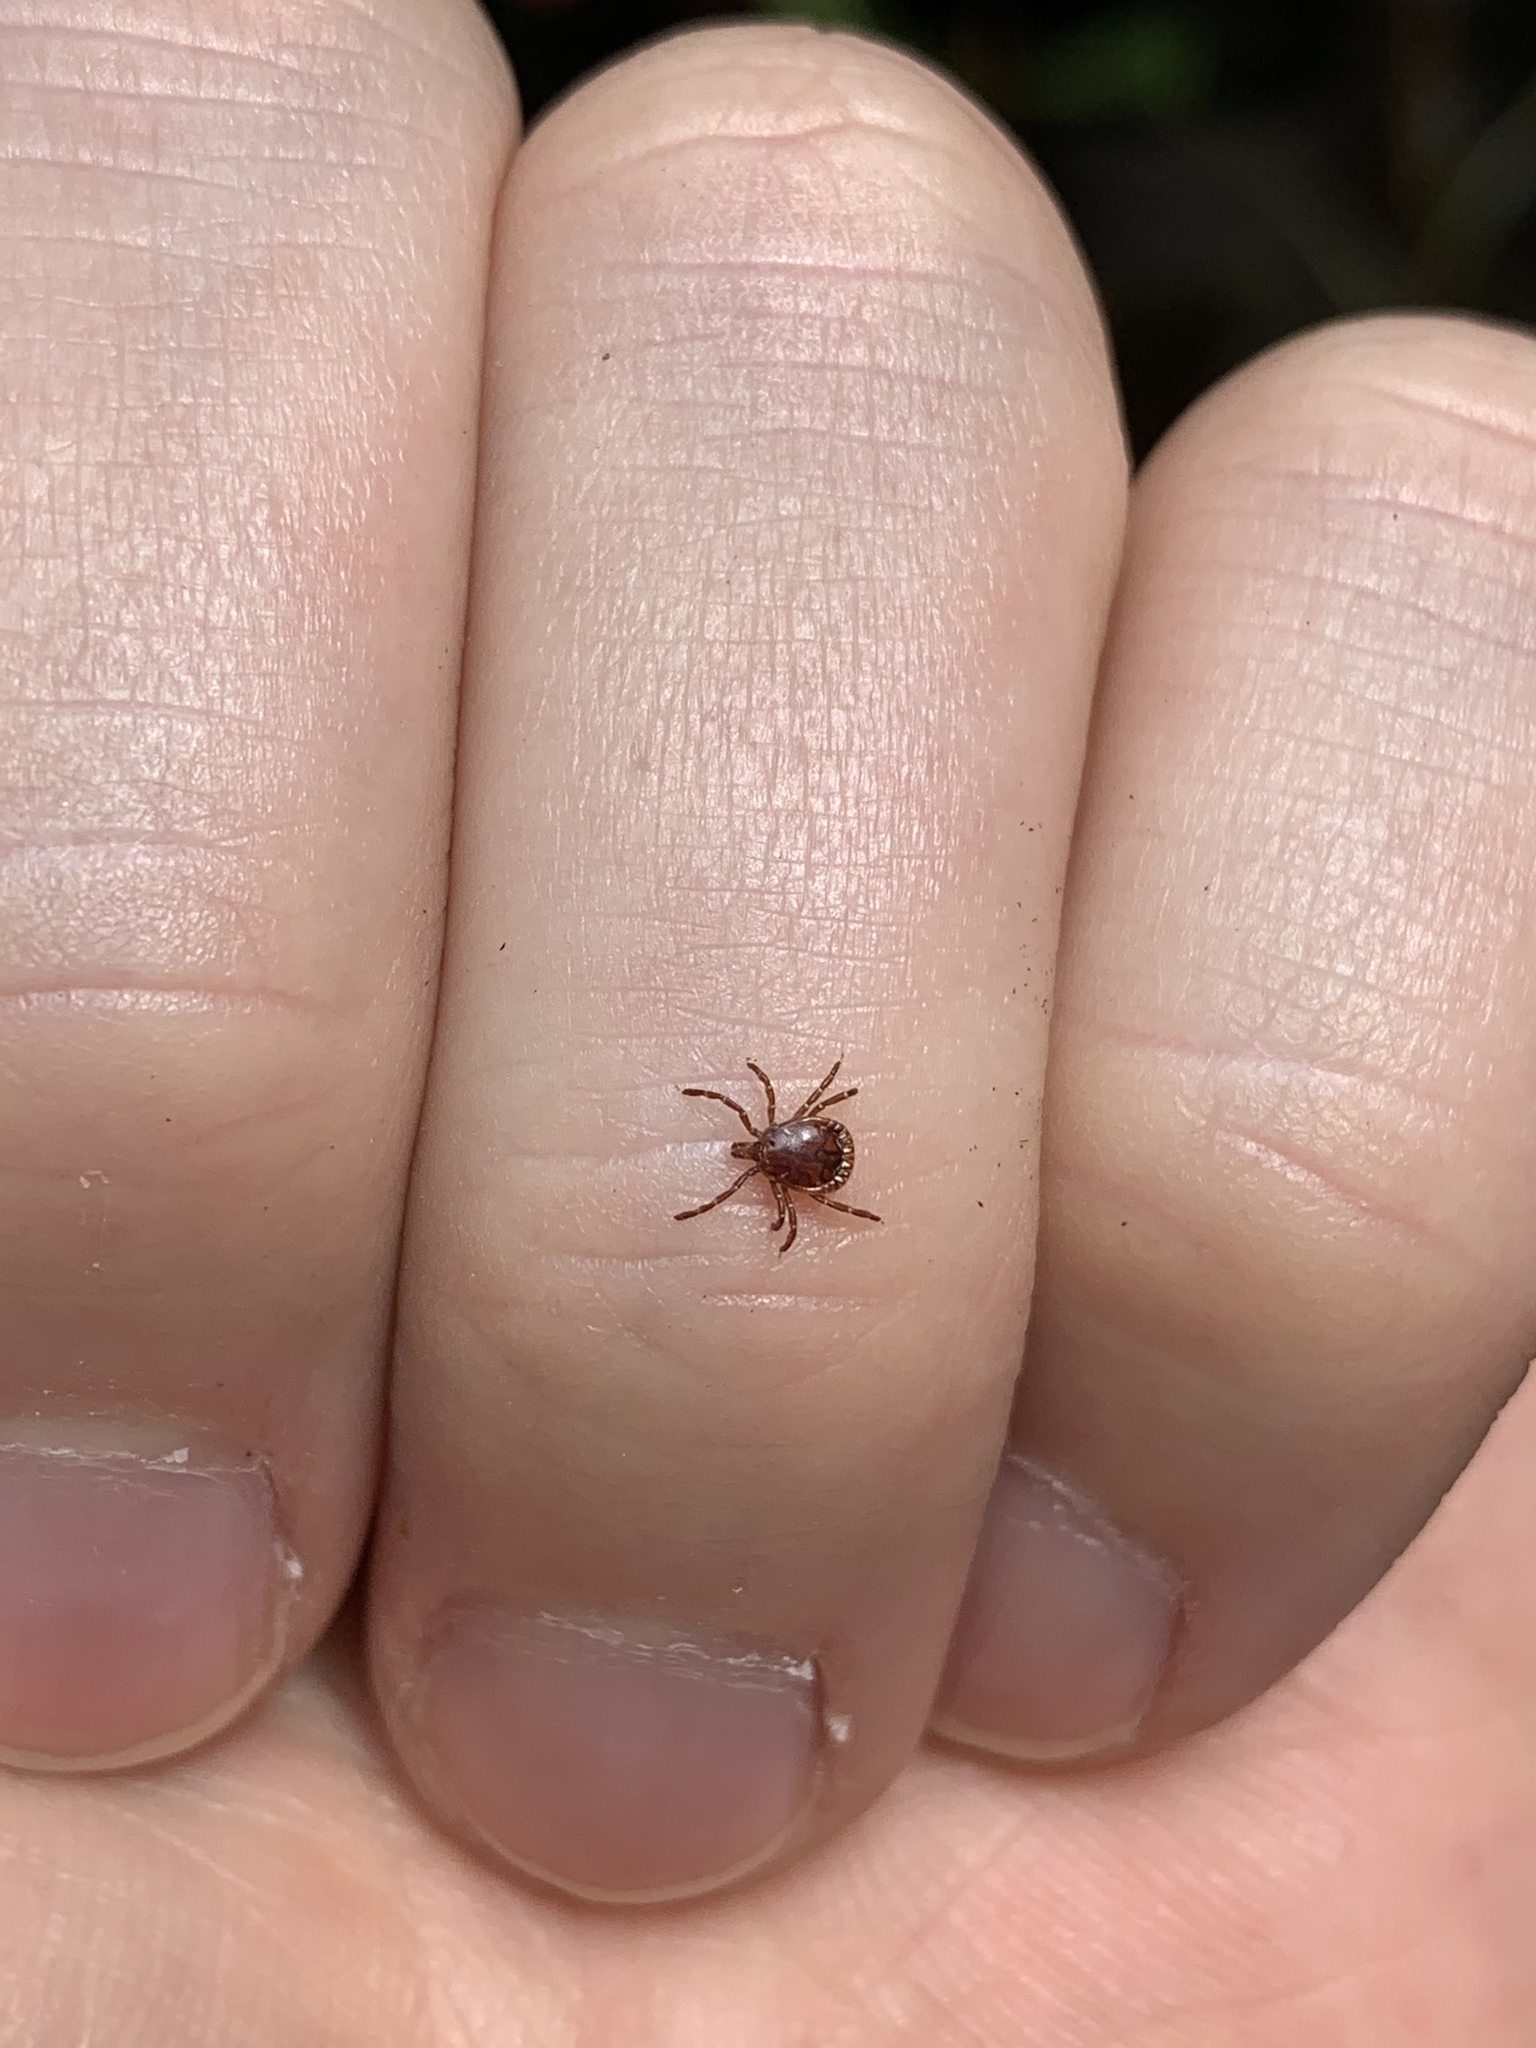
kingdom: Animalia
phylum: Arthropoda
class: Arachnida
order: Ixodida
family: Ixodidae
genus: Amblyomma
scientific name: Amblyomma americanum
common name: Lone star tick
